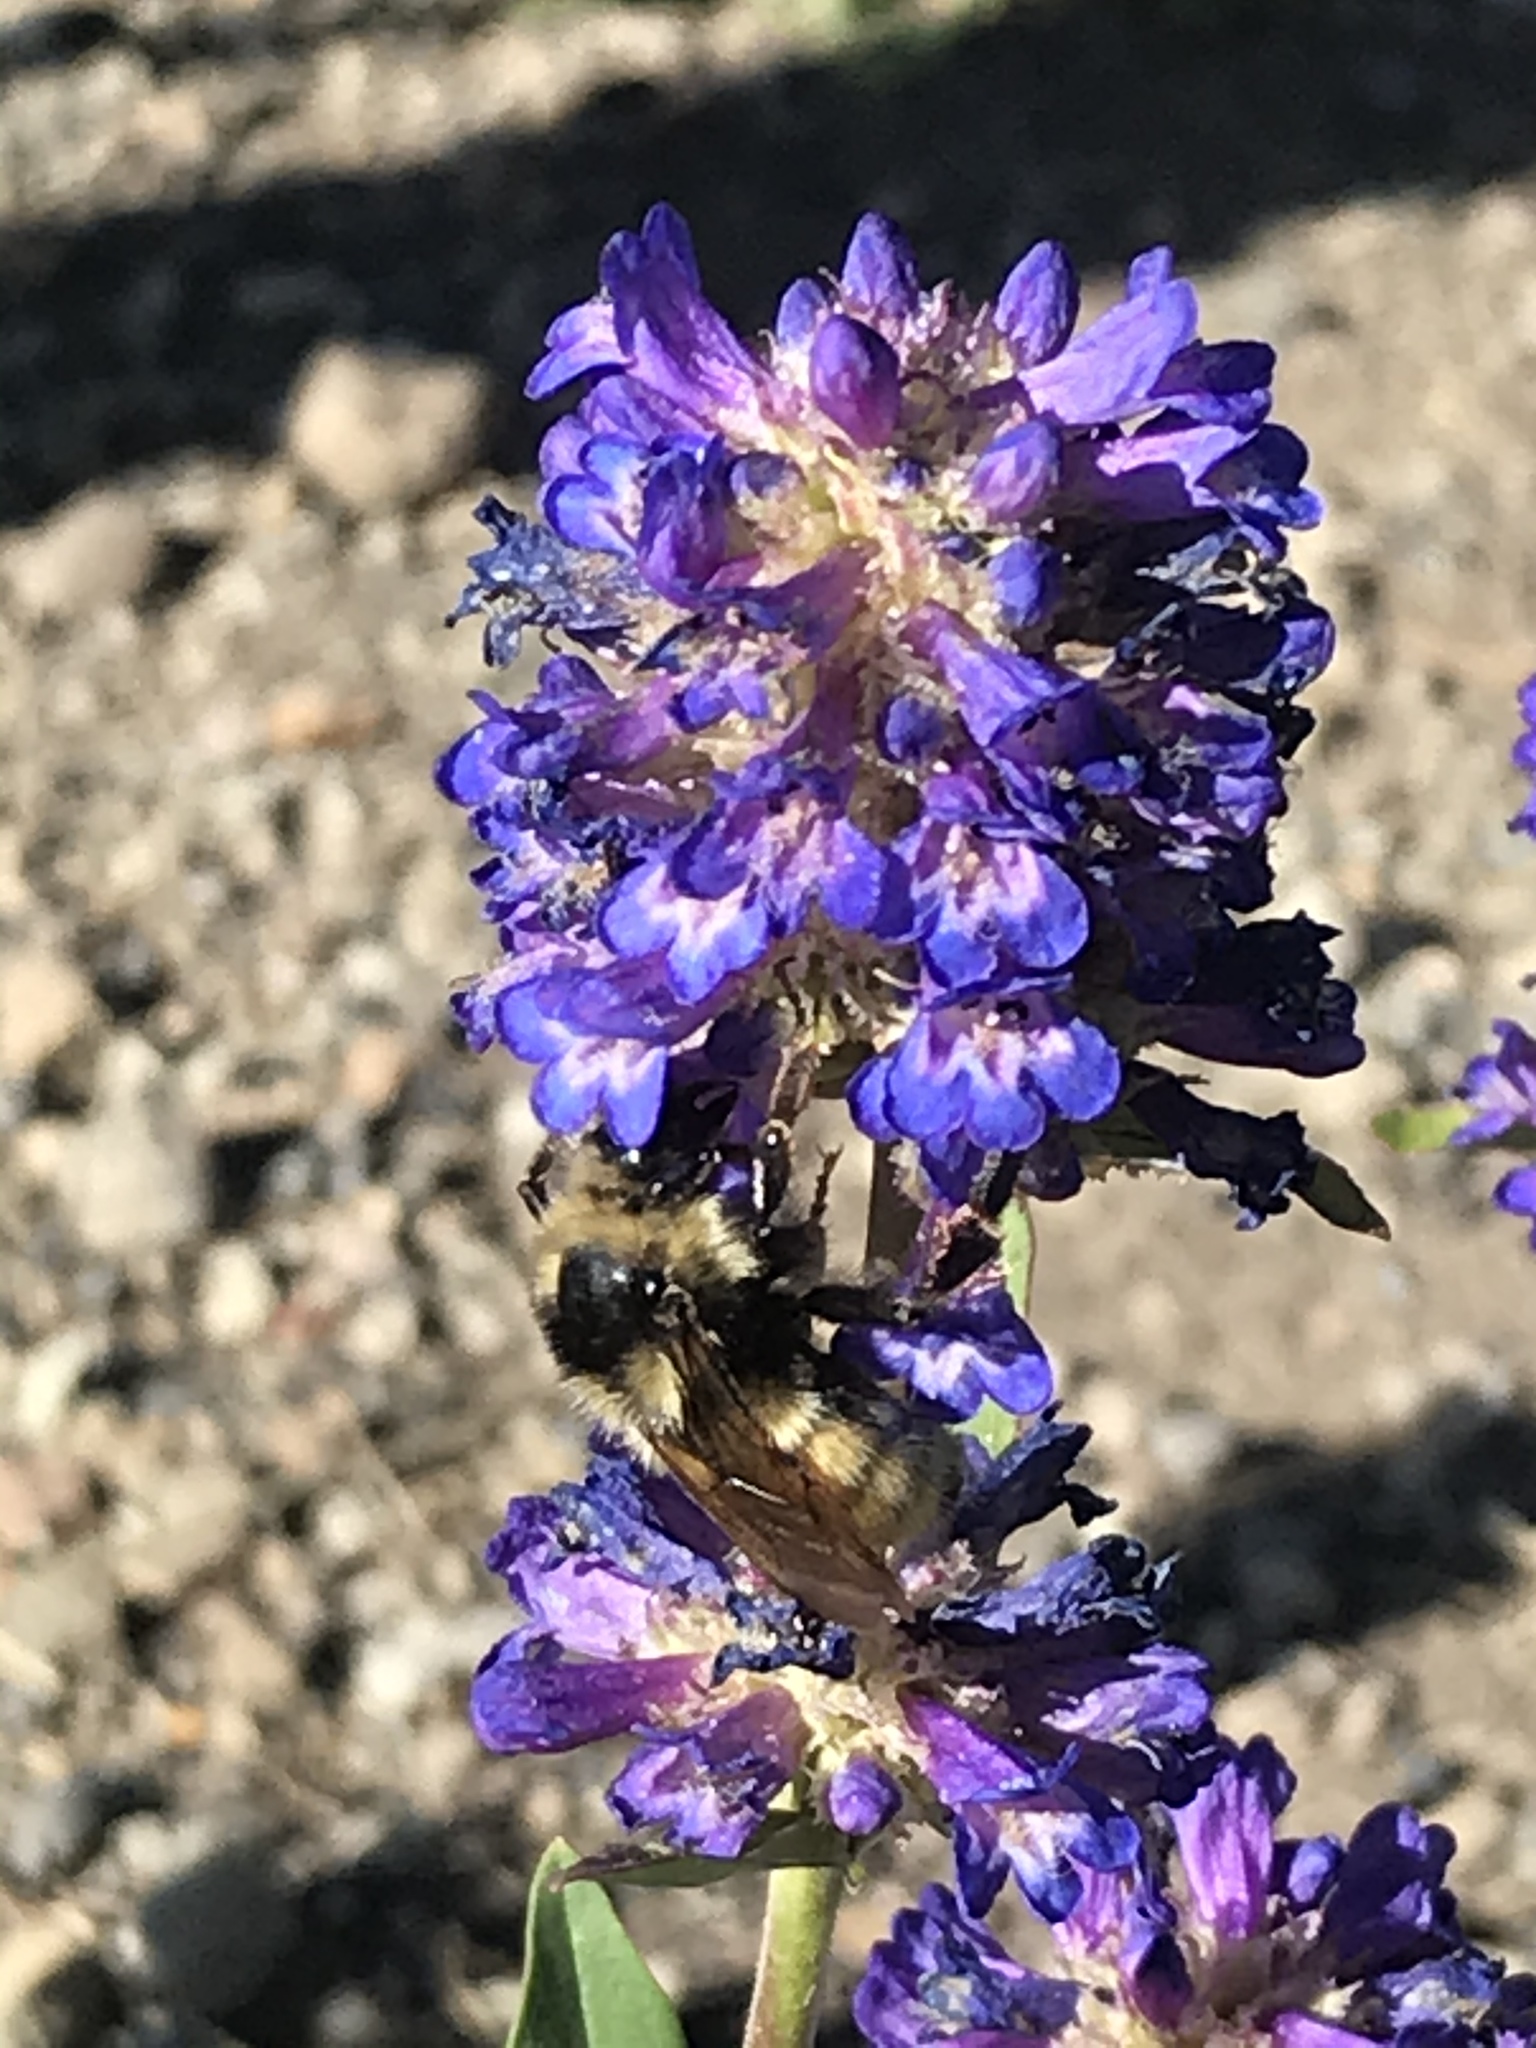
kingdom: Plantae
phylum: Tracheophyta
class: Magnoliopsida
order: Lamiales
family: Plantaginaceae
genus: Penstemon
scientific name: Penstemon rydbergii
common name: Rydberg's beardtongue
